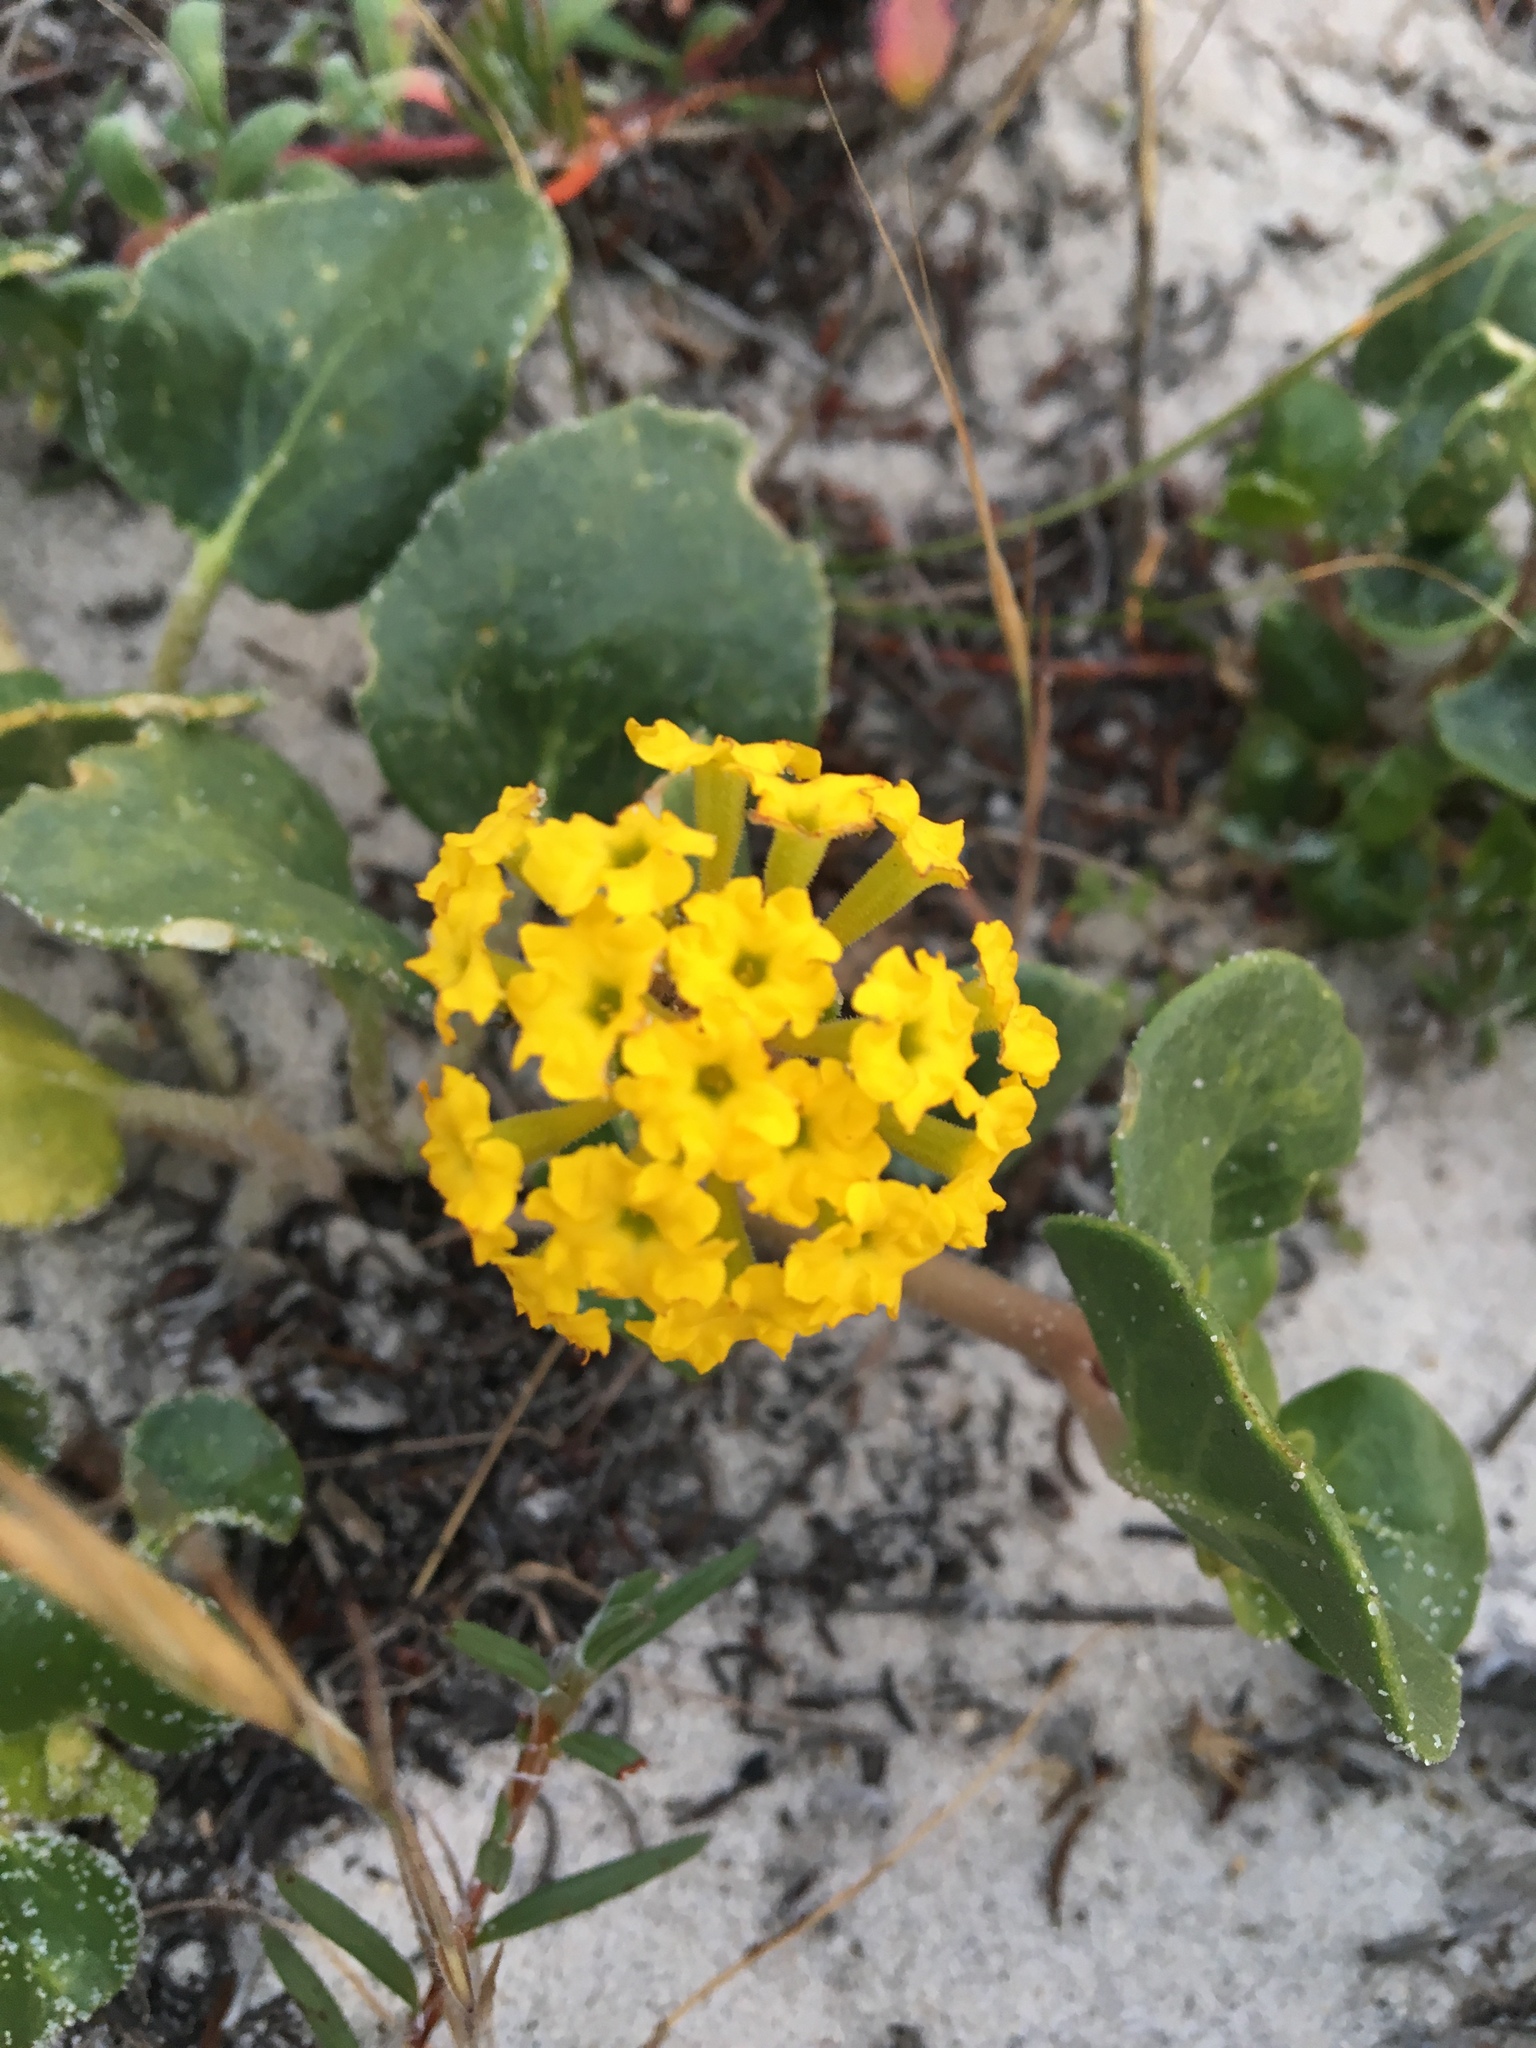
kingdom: Plantae
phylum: Tracheophyta
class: Magnoliopsida
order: Caryophyllales
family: Nyctaginaceae
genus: Abronia
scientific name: Abronia latifolia
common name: Yellow sand-verbena
